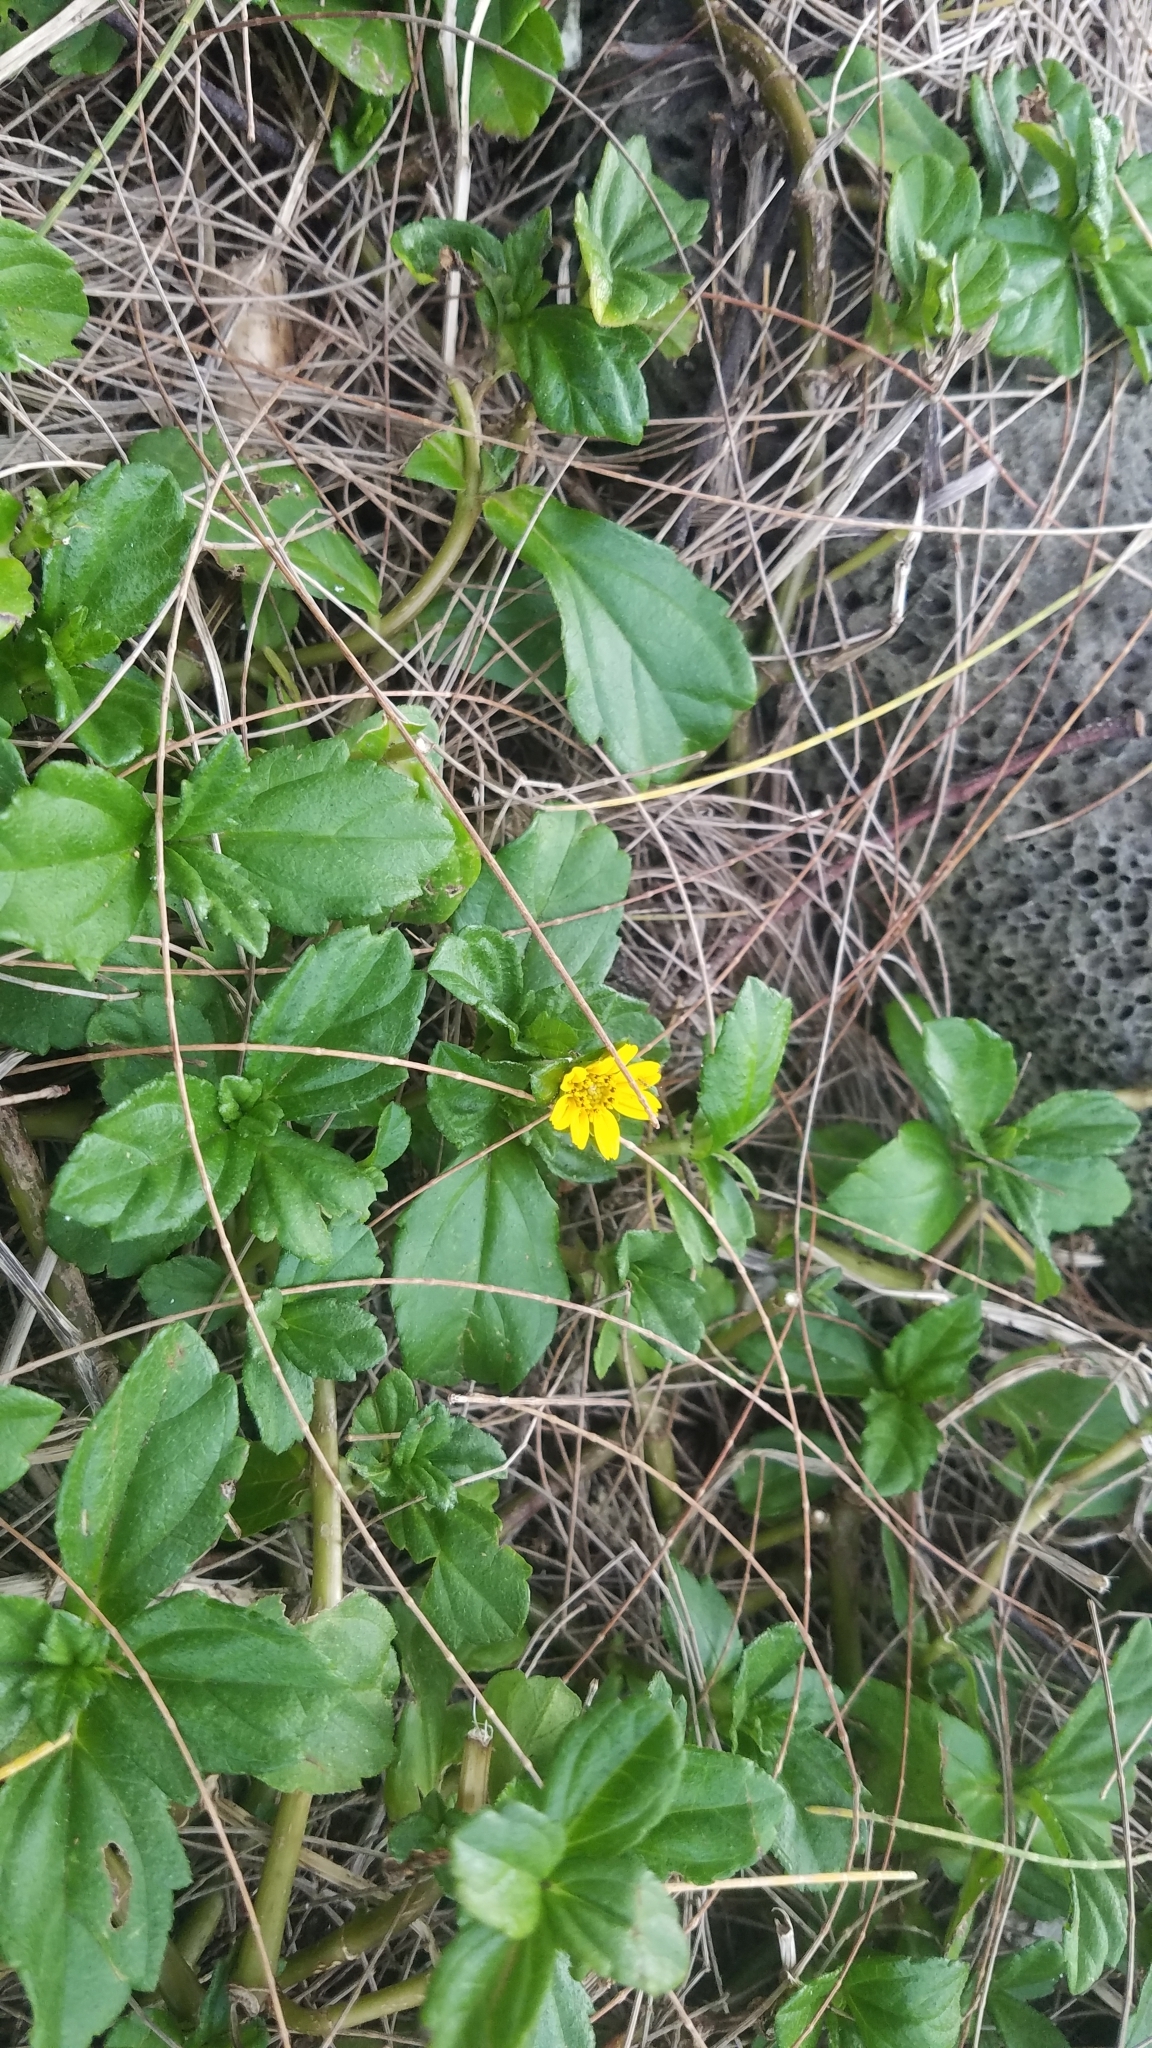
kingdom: Plantae
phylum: Tracheophyta
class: Magnoliopsida
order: Asterales
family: Asteraceae
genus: Sphagneticola
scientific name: Sphagneticola trilobata
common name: Bay biscayne creeping-oxeye
